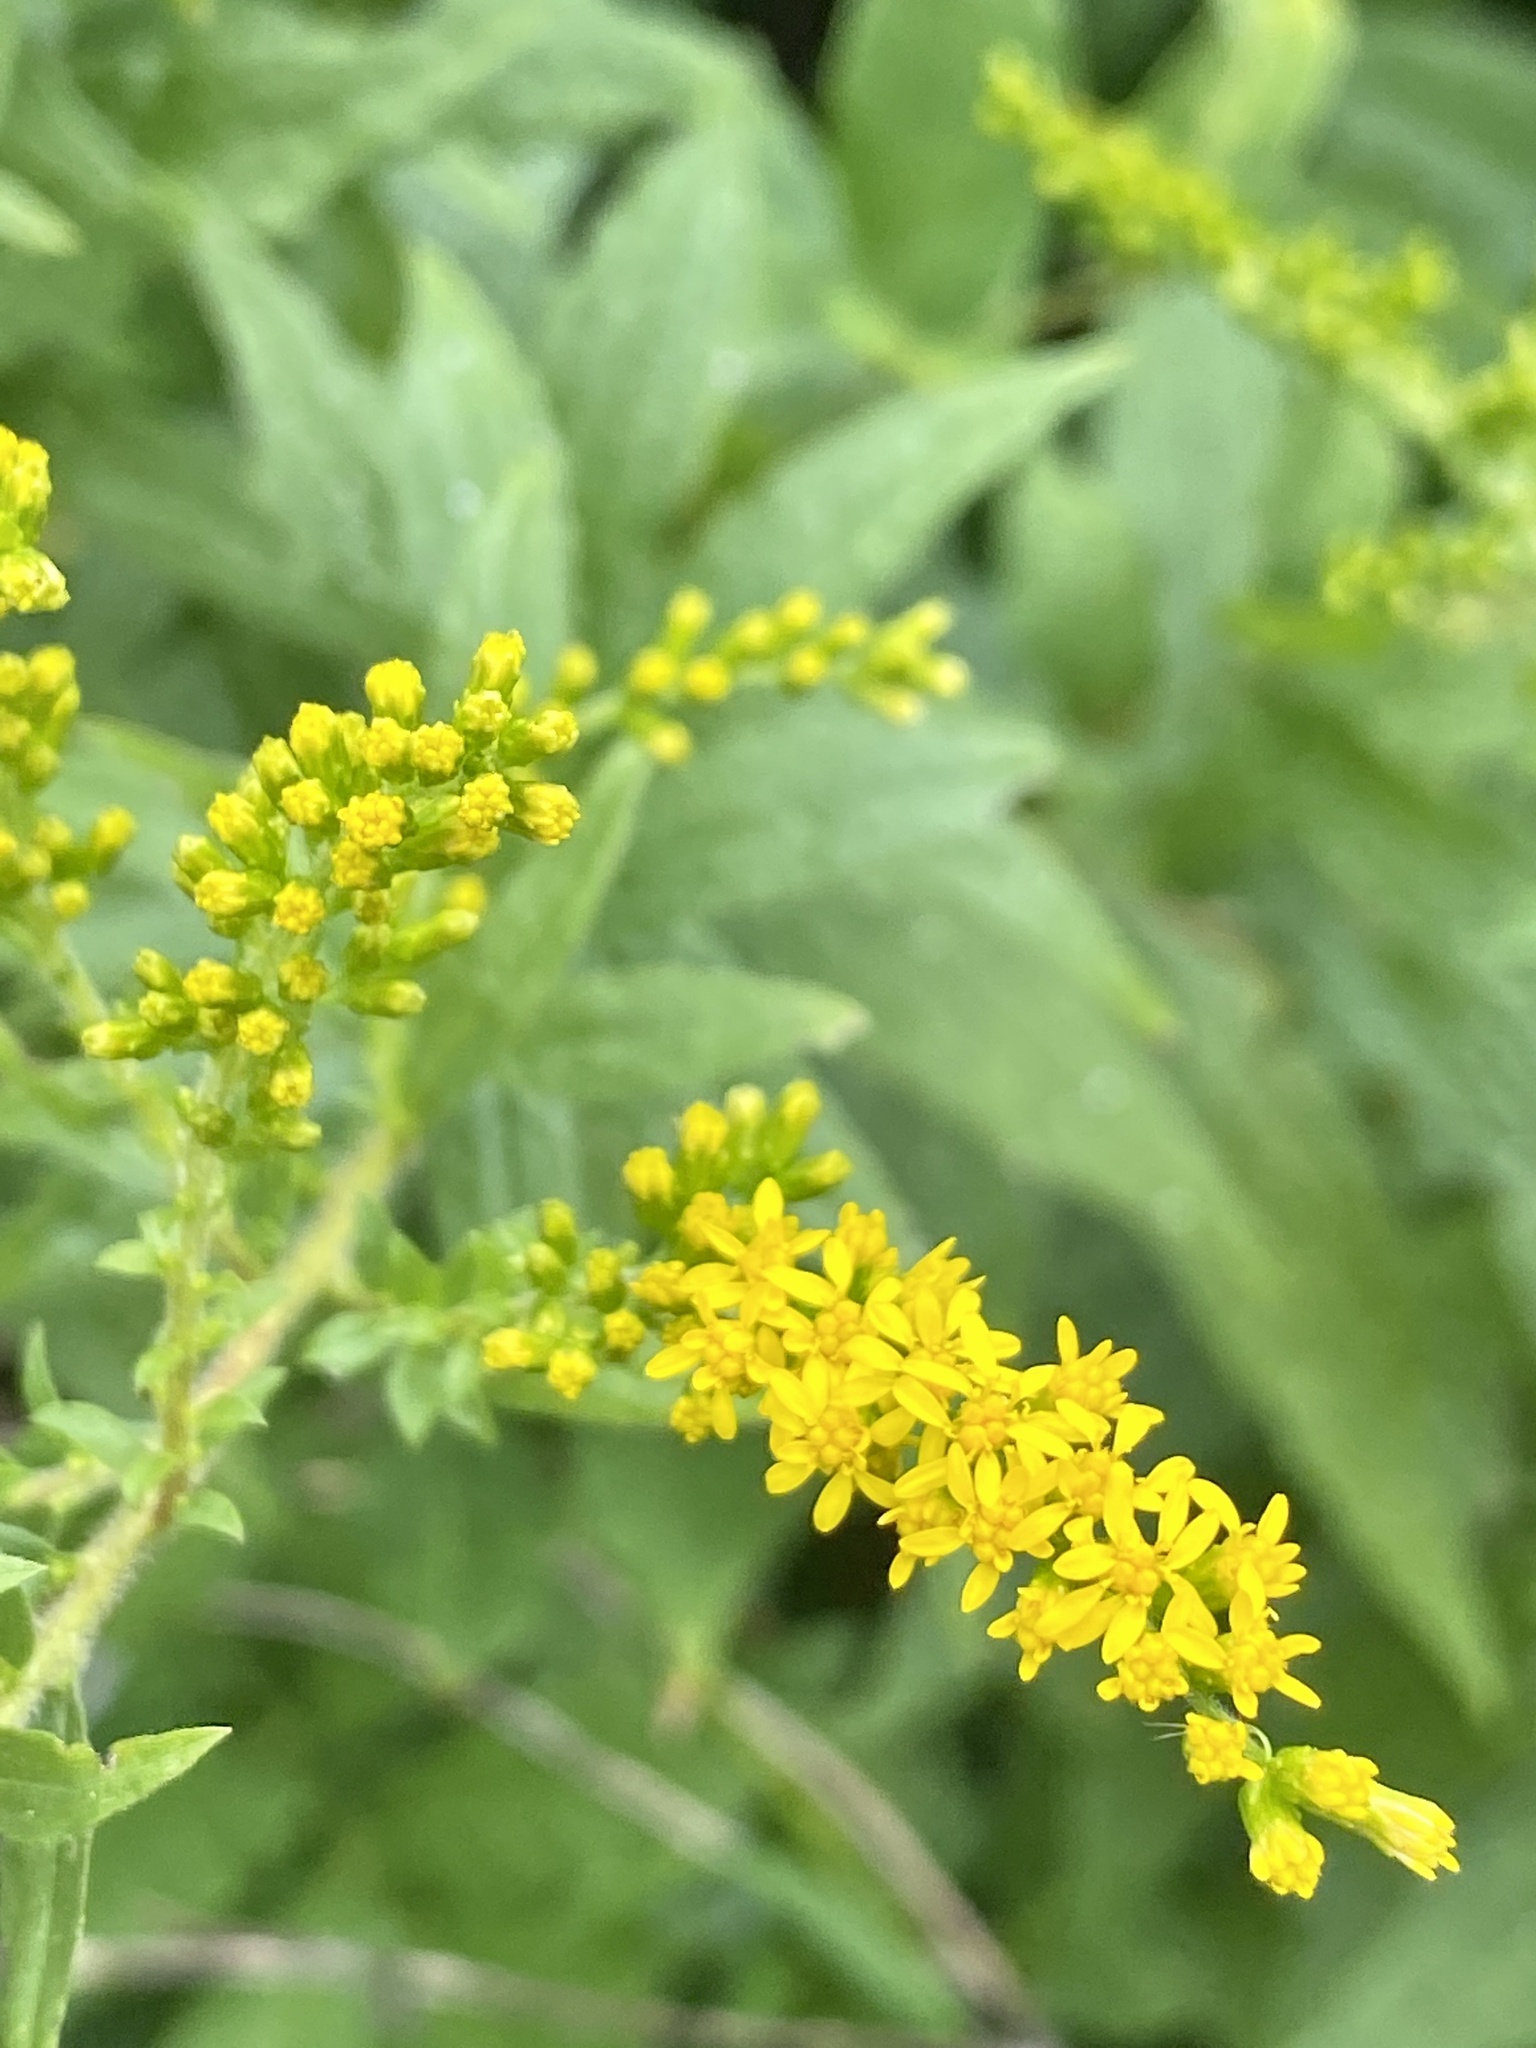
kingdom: Plantae
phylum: Tracheophyta
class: Magnoliopsida
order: Asterales
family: Asteraceae
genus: Solidago
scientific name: Solidago rugosa
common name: Rough-stemmed goldenrod
